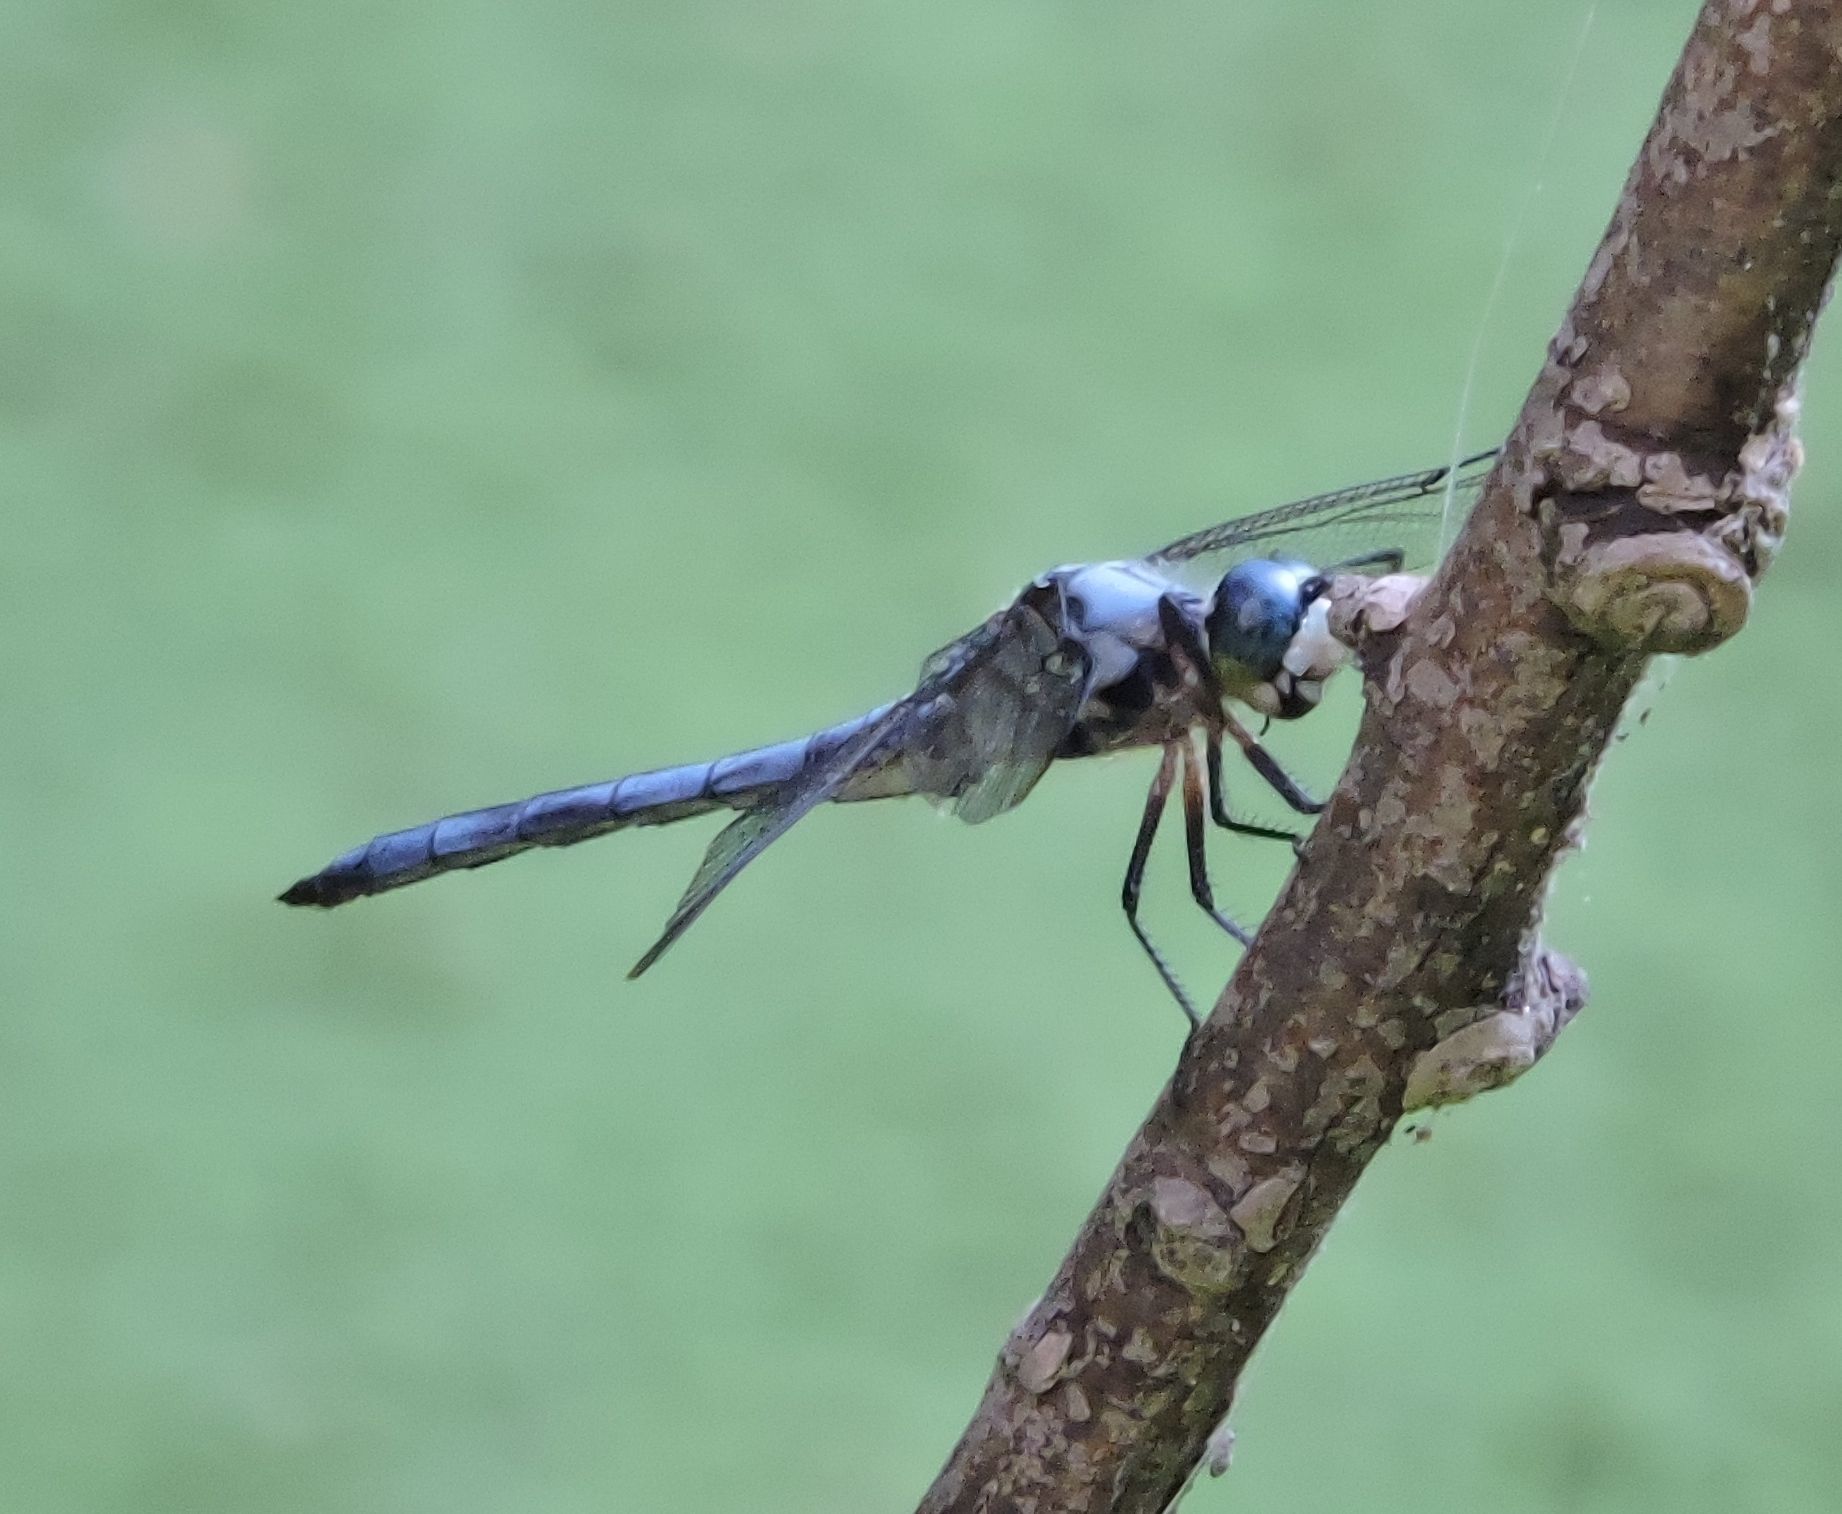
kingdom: Animalia
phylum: Arthropoda
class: Insecta
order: Odonata
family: Libellulidae
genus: Libellula
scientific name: Libellula vibrans
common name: Great blue skimmer
